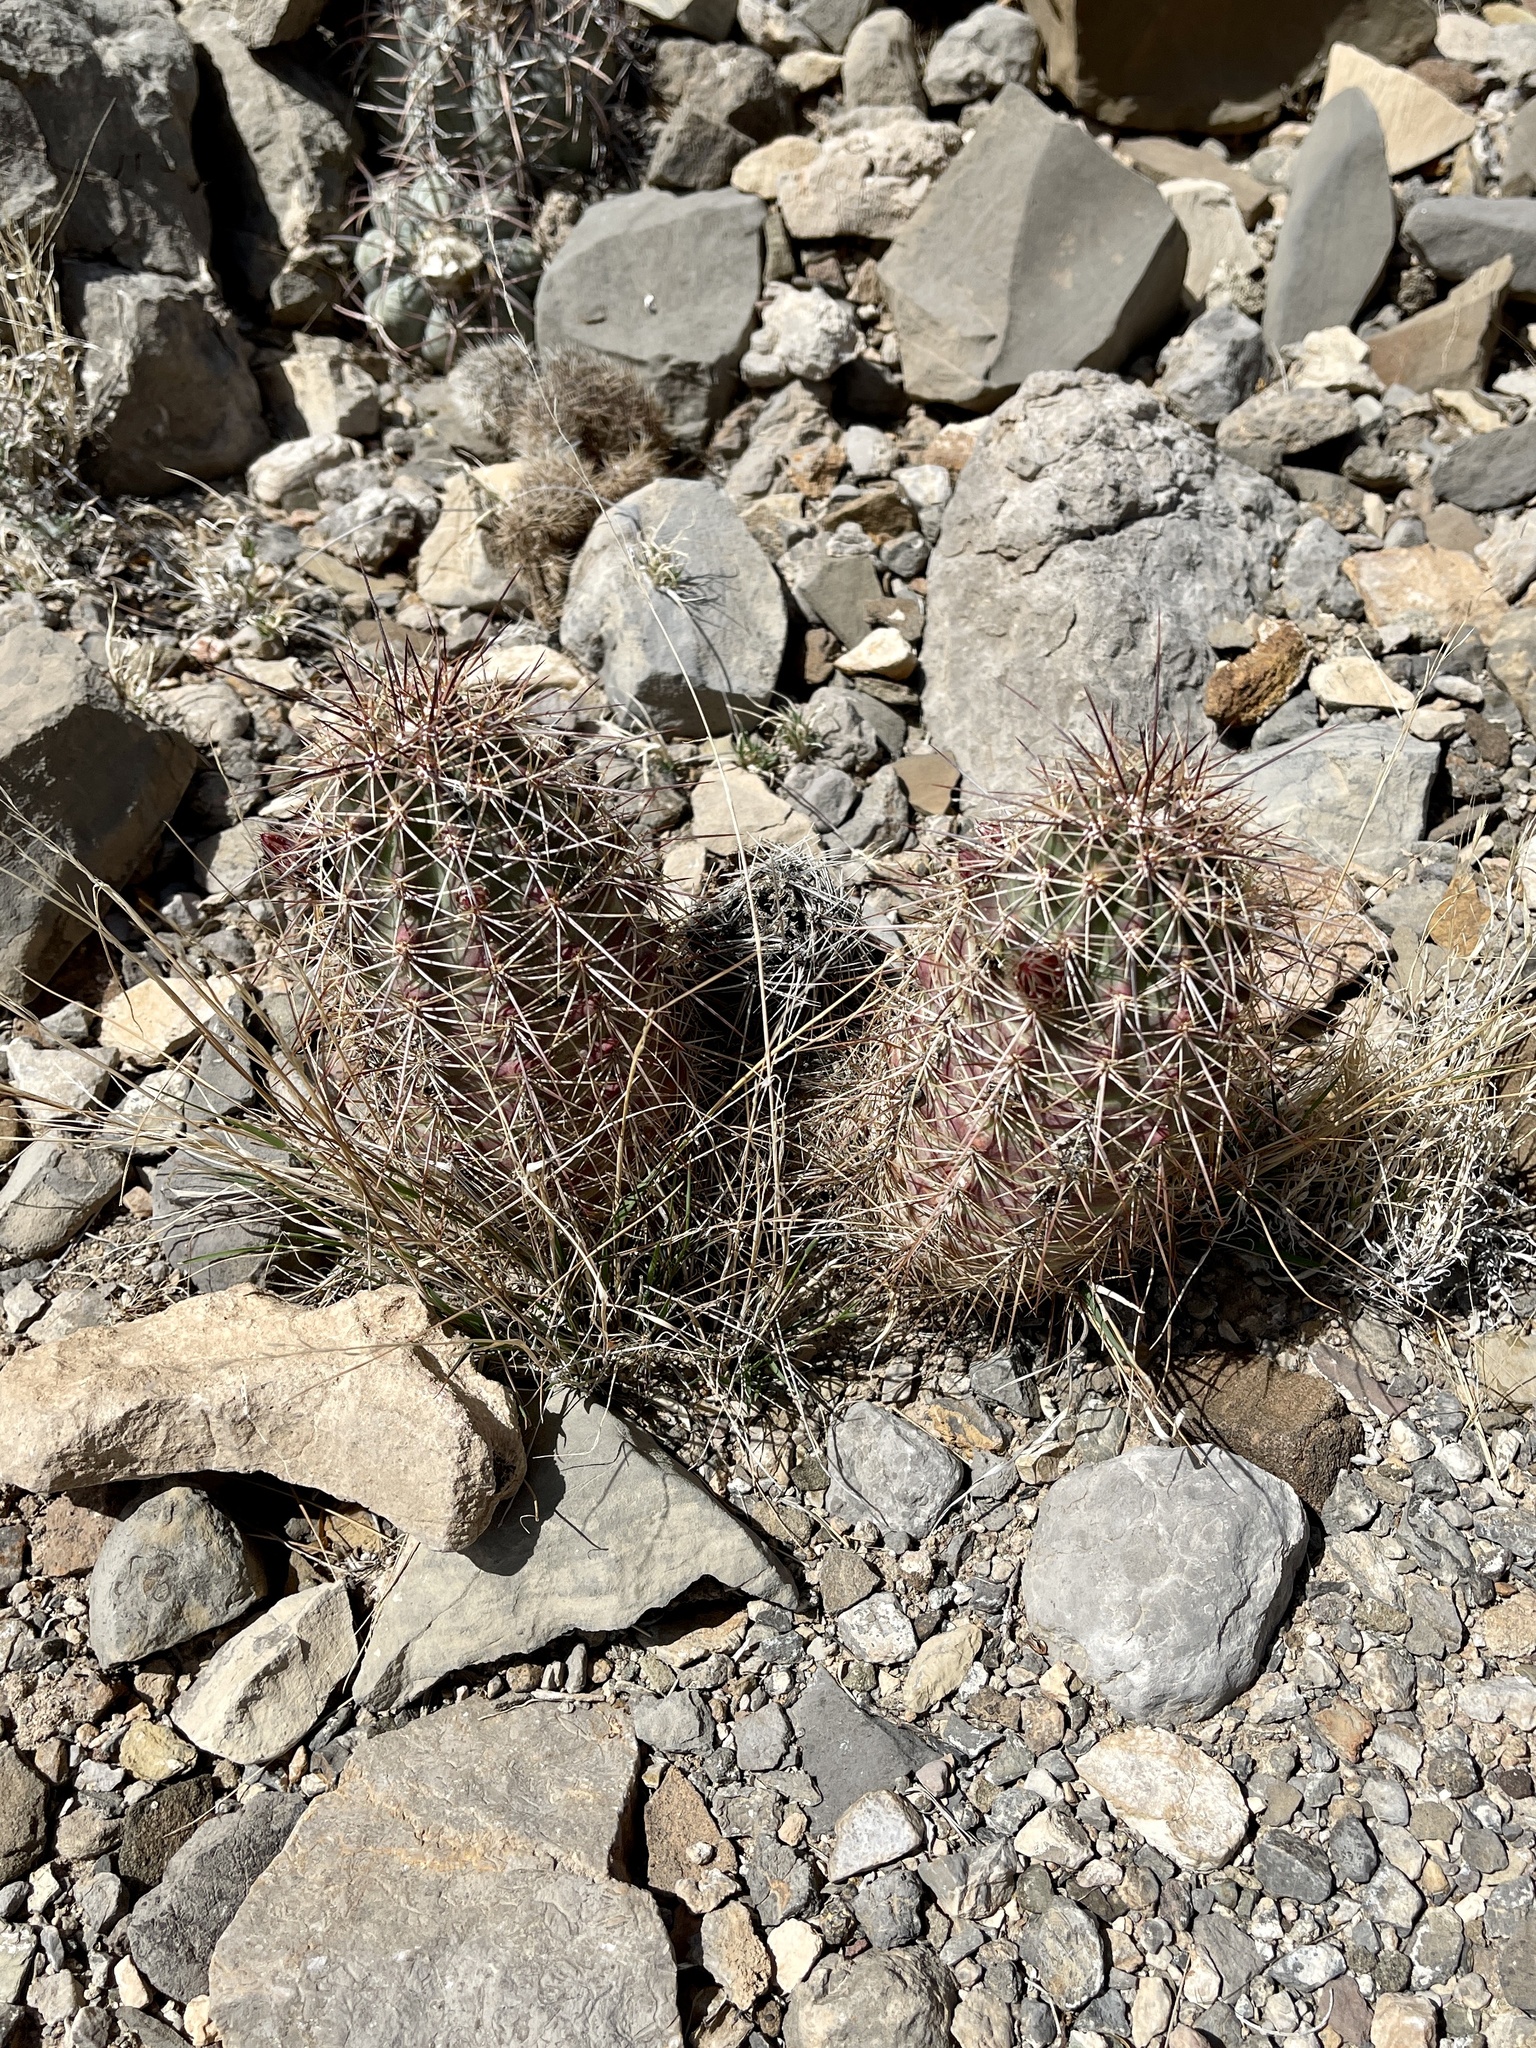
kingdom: Plantae
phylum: Tracheophyta
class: Magnoliopsida
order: Caryophyllales
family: Cactaceae
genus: Echinocereus
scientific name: Echinocereus coccineus
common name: Scarlet hedgehog cactus
